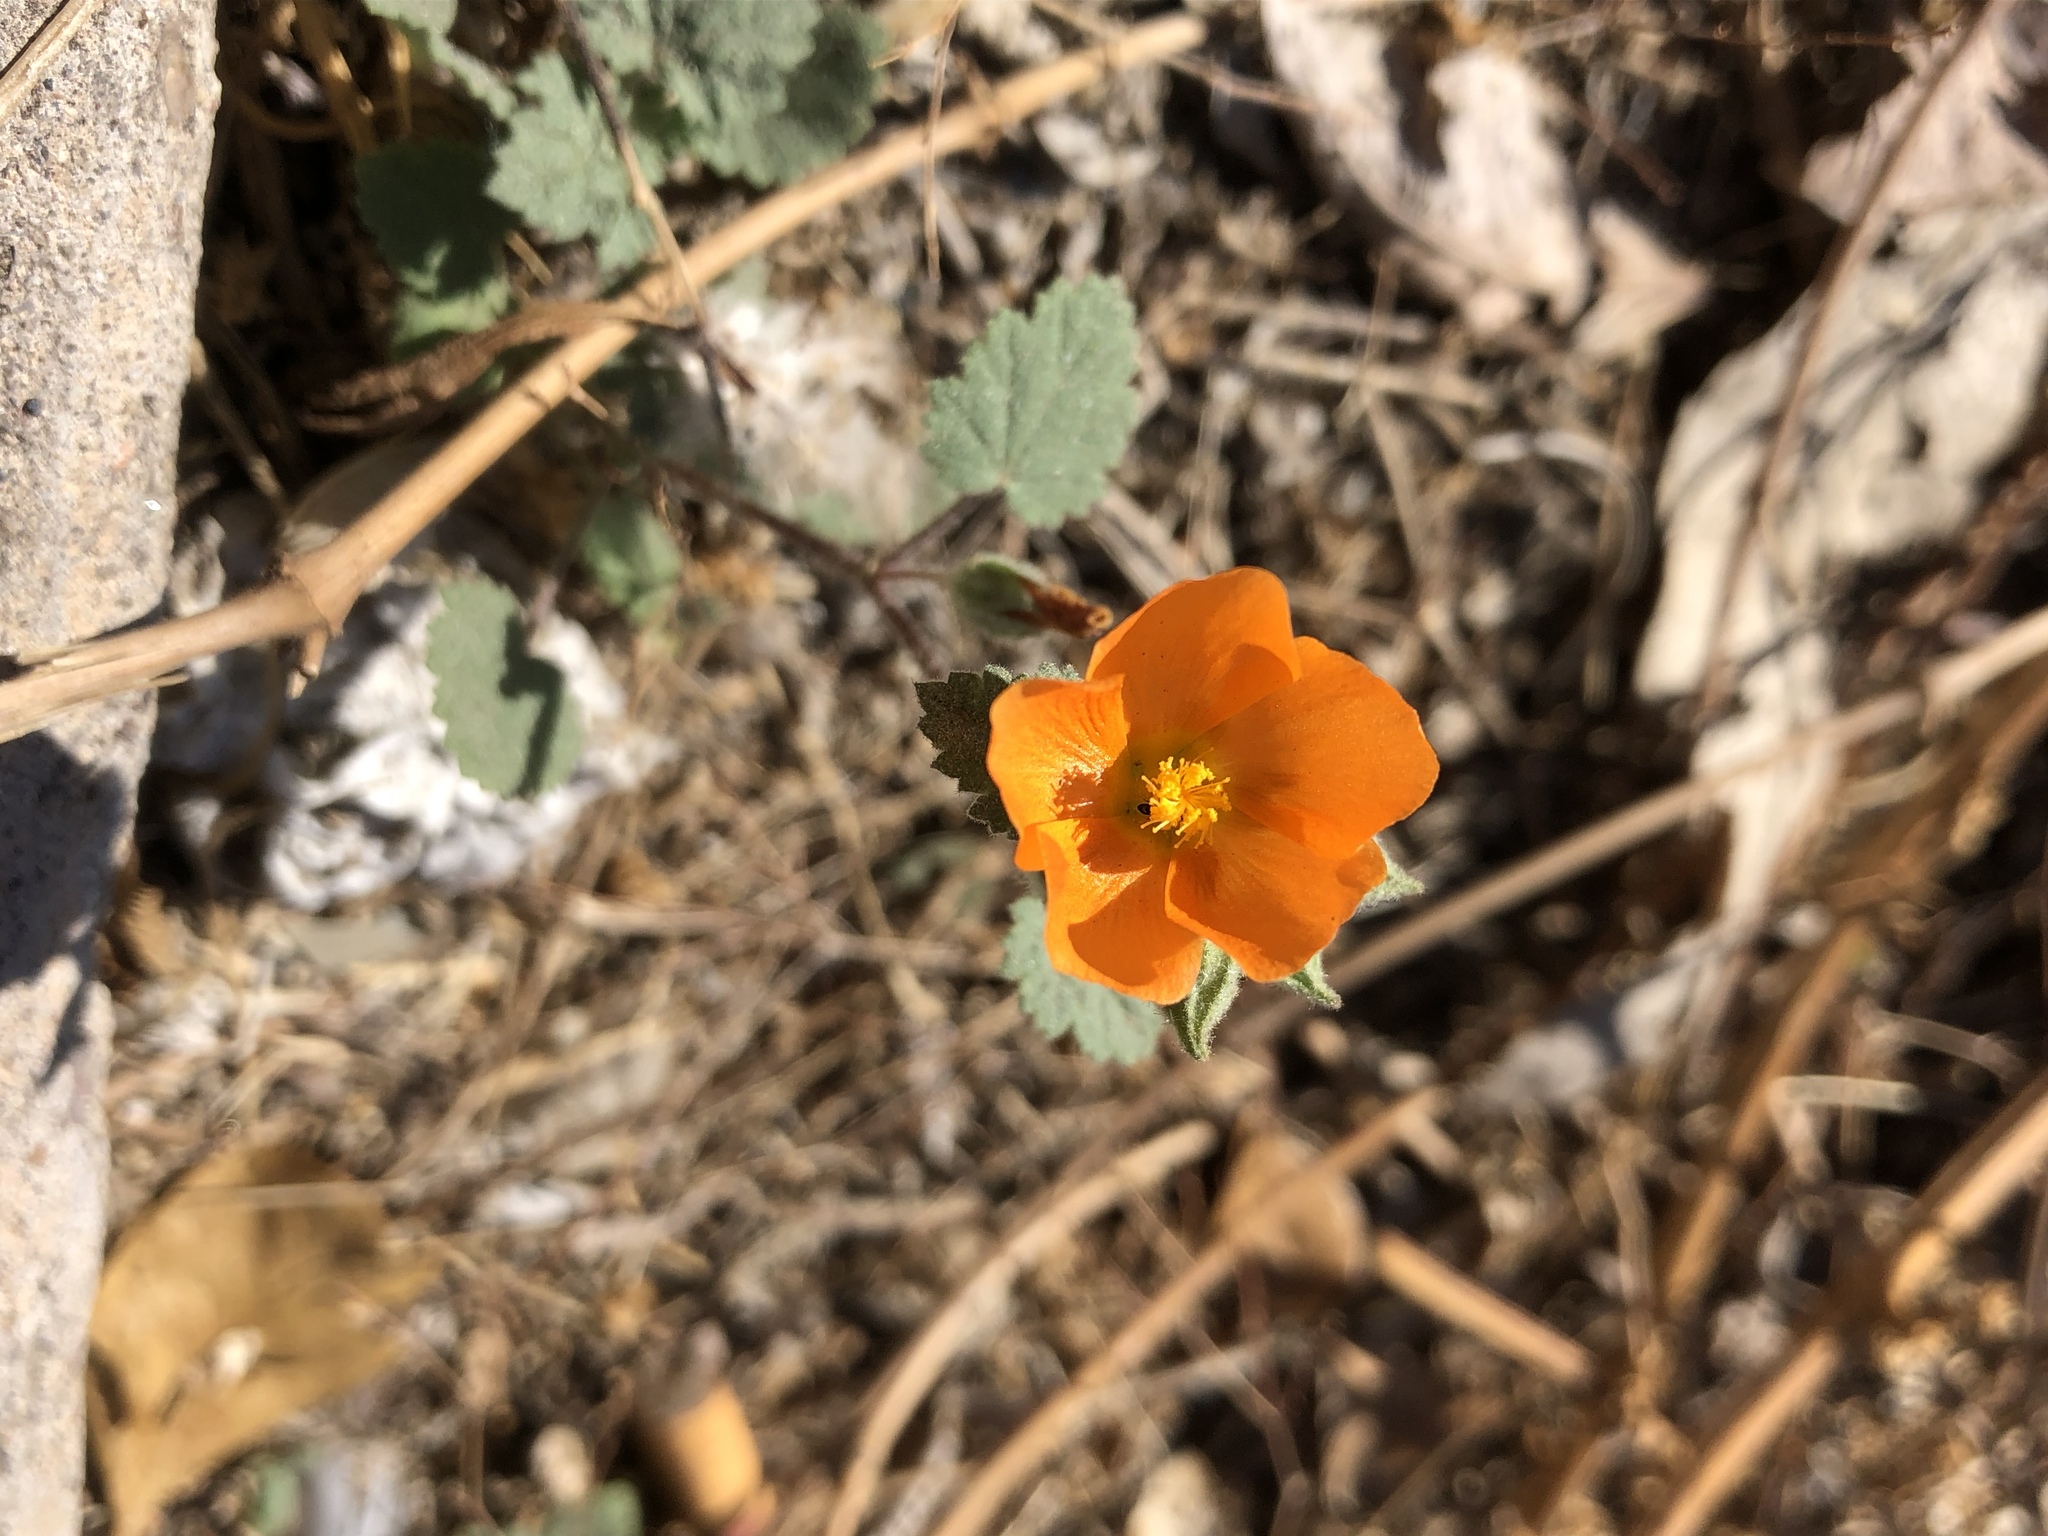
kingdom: Plantae
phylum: Tracheophyta
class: Magnoliopsida
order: Malvales
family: Malvaceae
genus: Sphaeralcea
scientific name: Sphaeralcea coulteri
